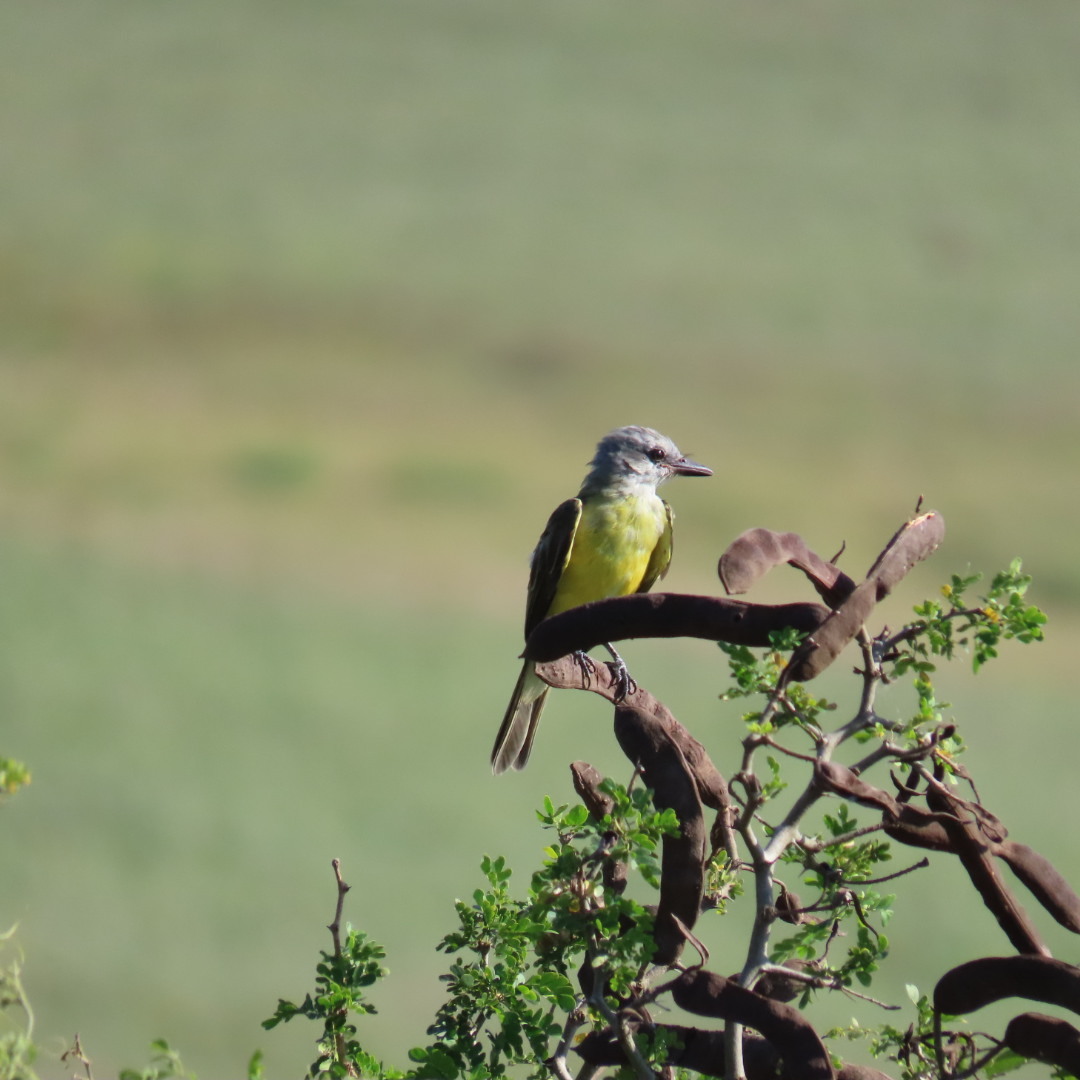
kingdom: Animalia
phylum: Chordata
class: Aves
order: Passeriformes
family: Tyrannidae
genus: Tyrannus
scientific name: Tyrannus
